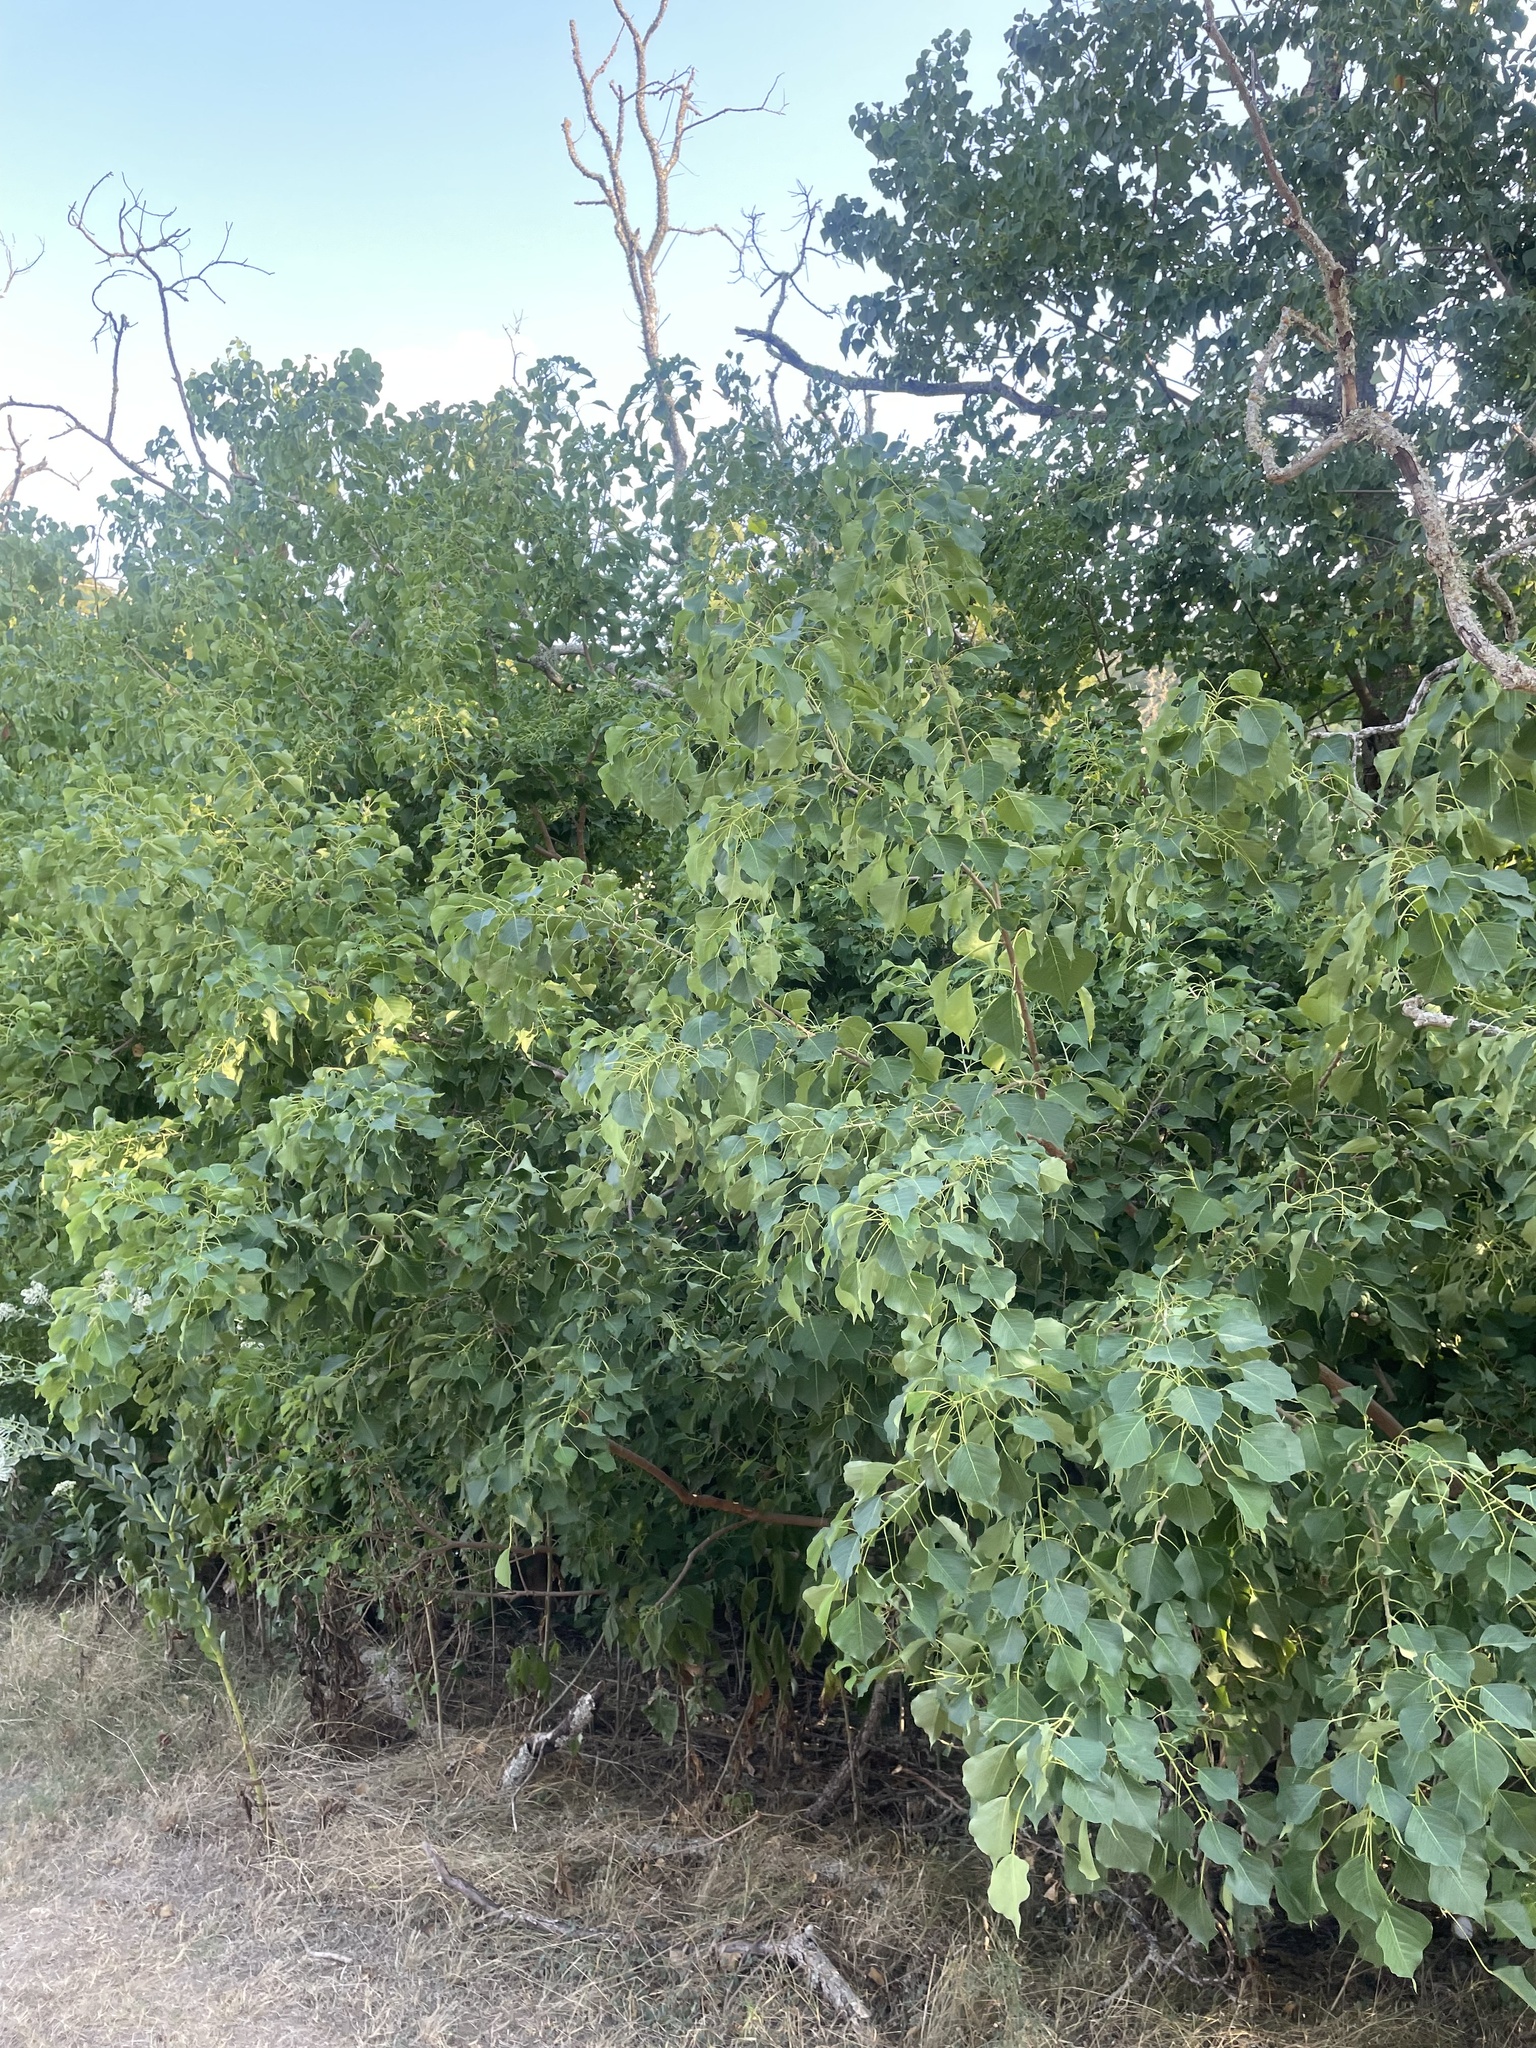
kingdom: Plantae
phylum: Tracheophyta
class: Magnoliopsida
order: Malpighiales
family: Euphorbiaceae
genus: Triadica
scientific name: Triadica sebifera
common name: Chinese tallow
